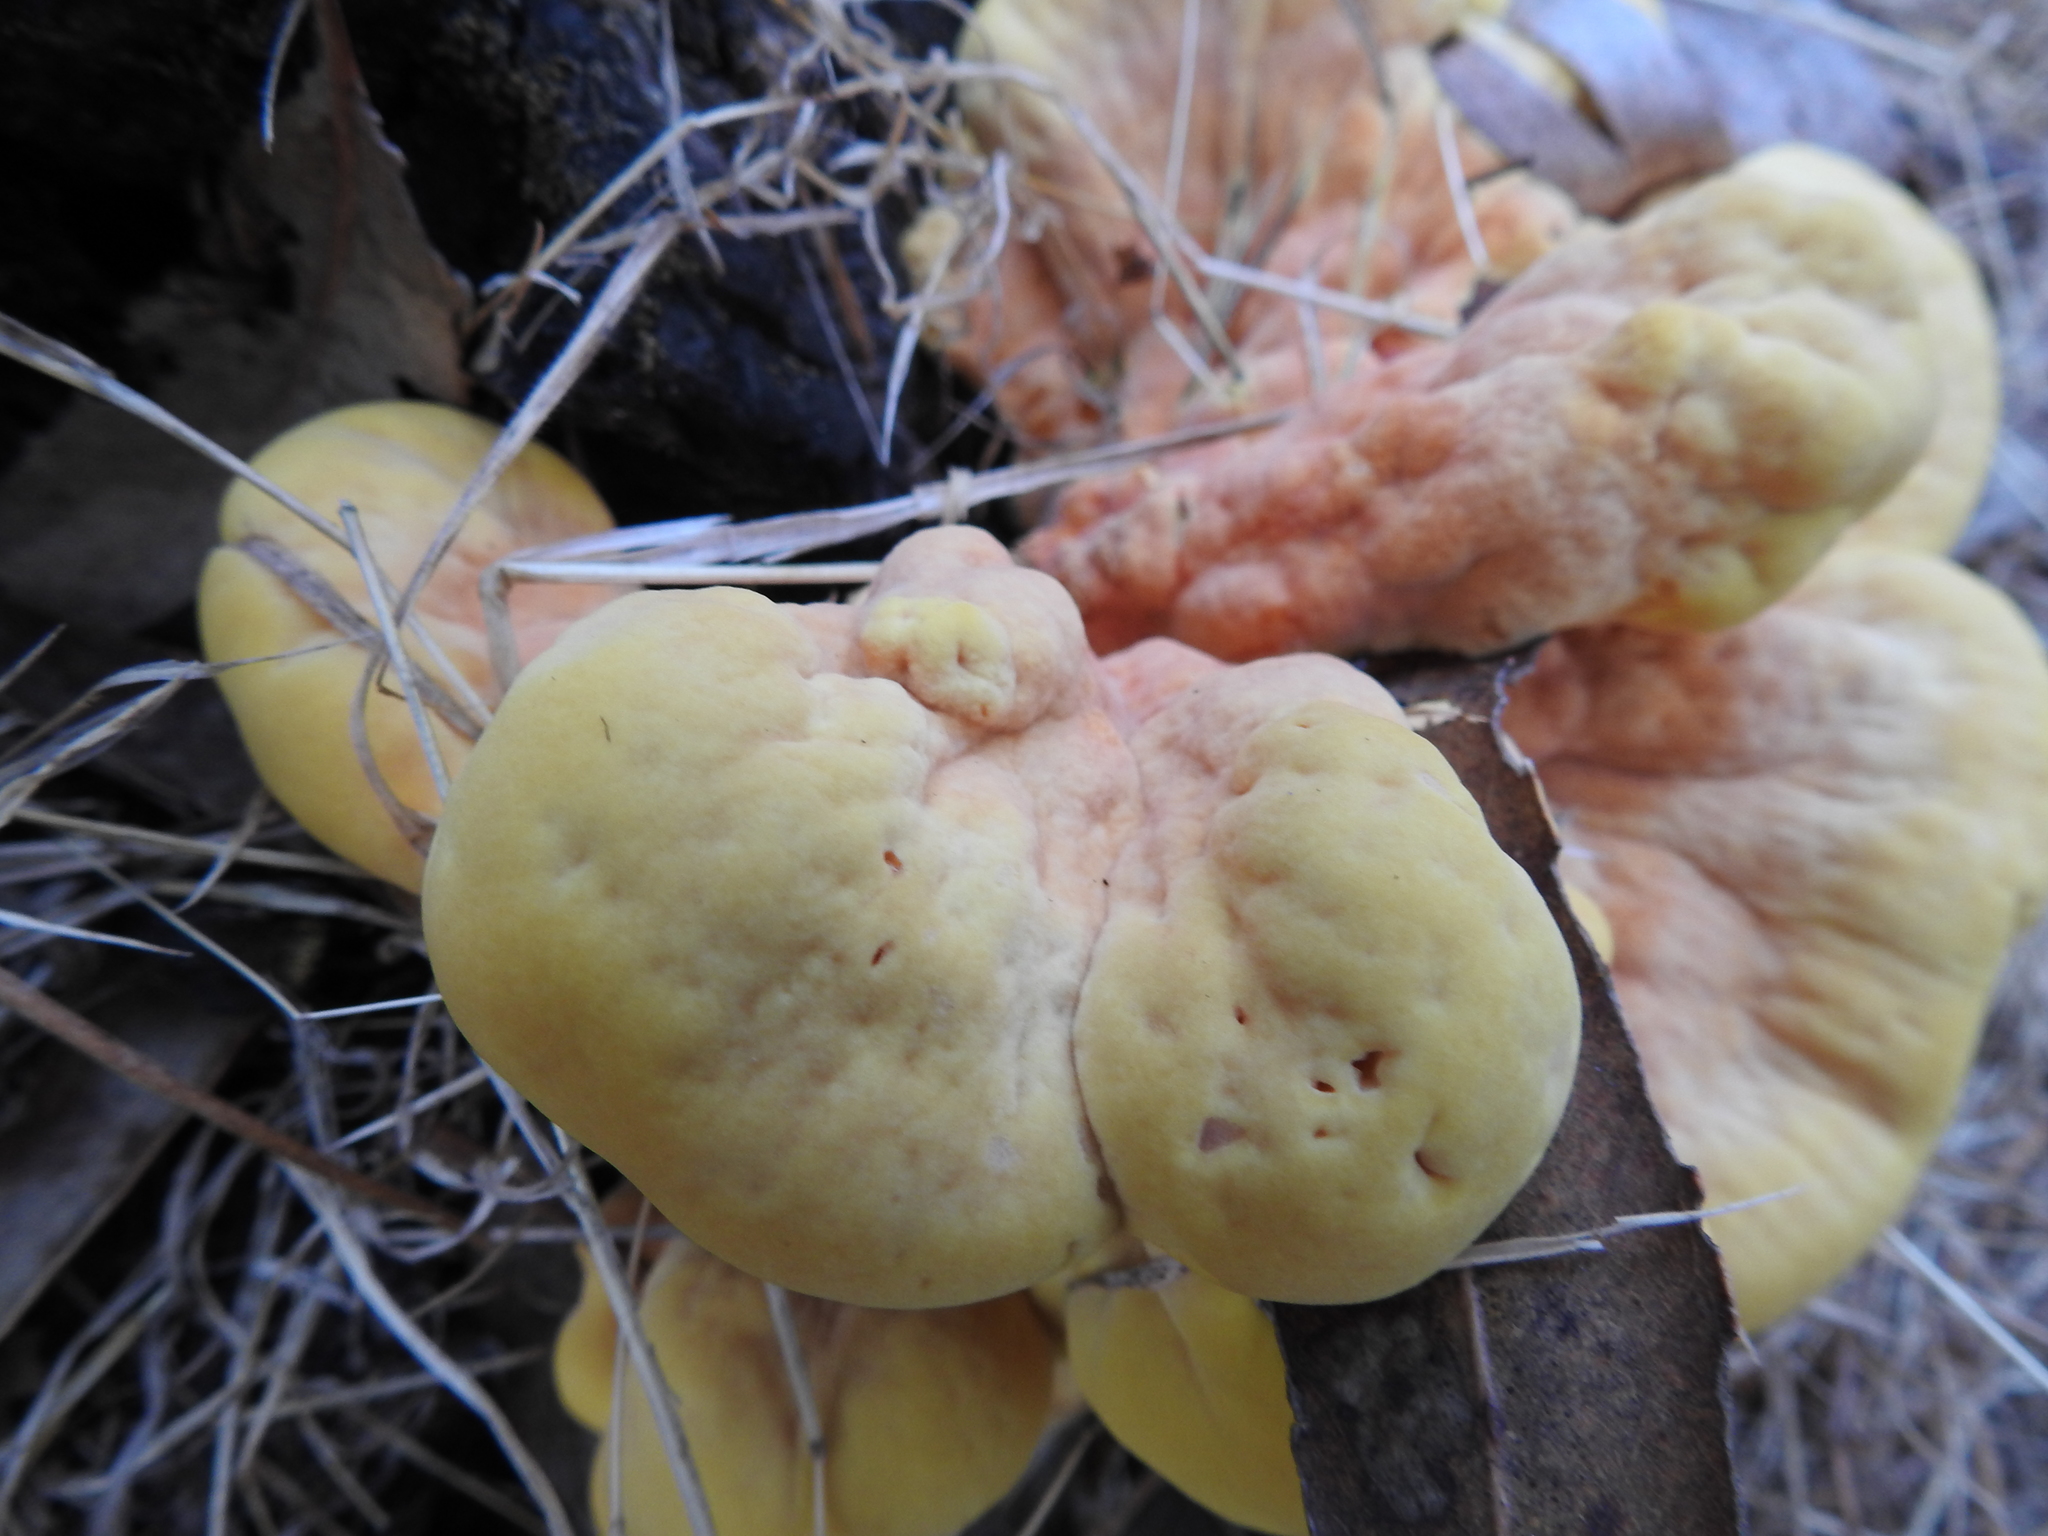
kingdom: Fungi
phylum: Basidiomycota
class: Agaricomycetes
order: Polyporales
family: Laetiporaceae
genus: Laetiporus
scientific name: Laetiporus gilbertsonii
